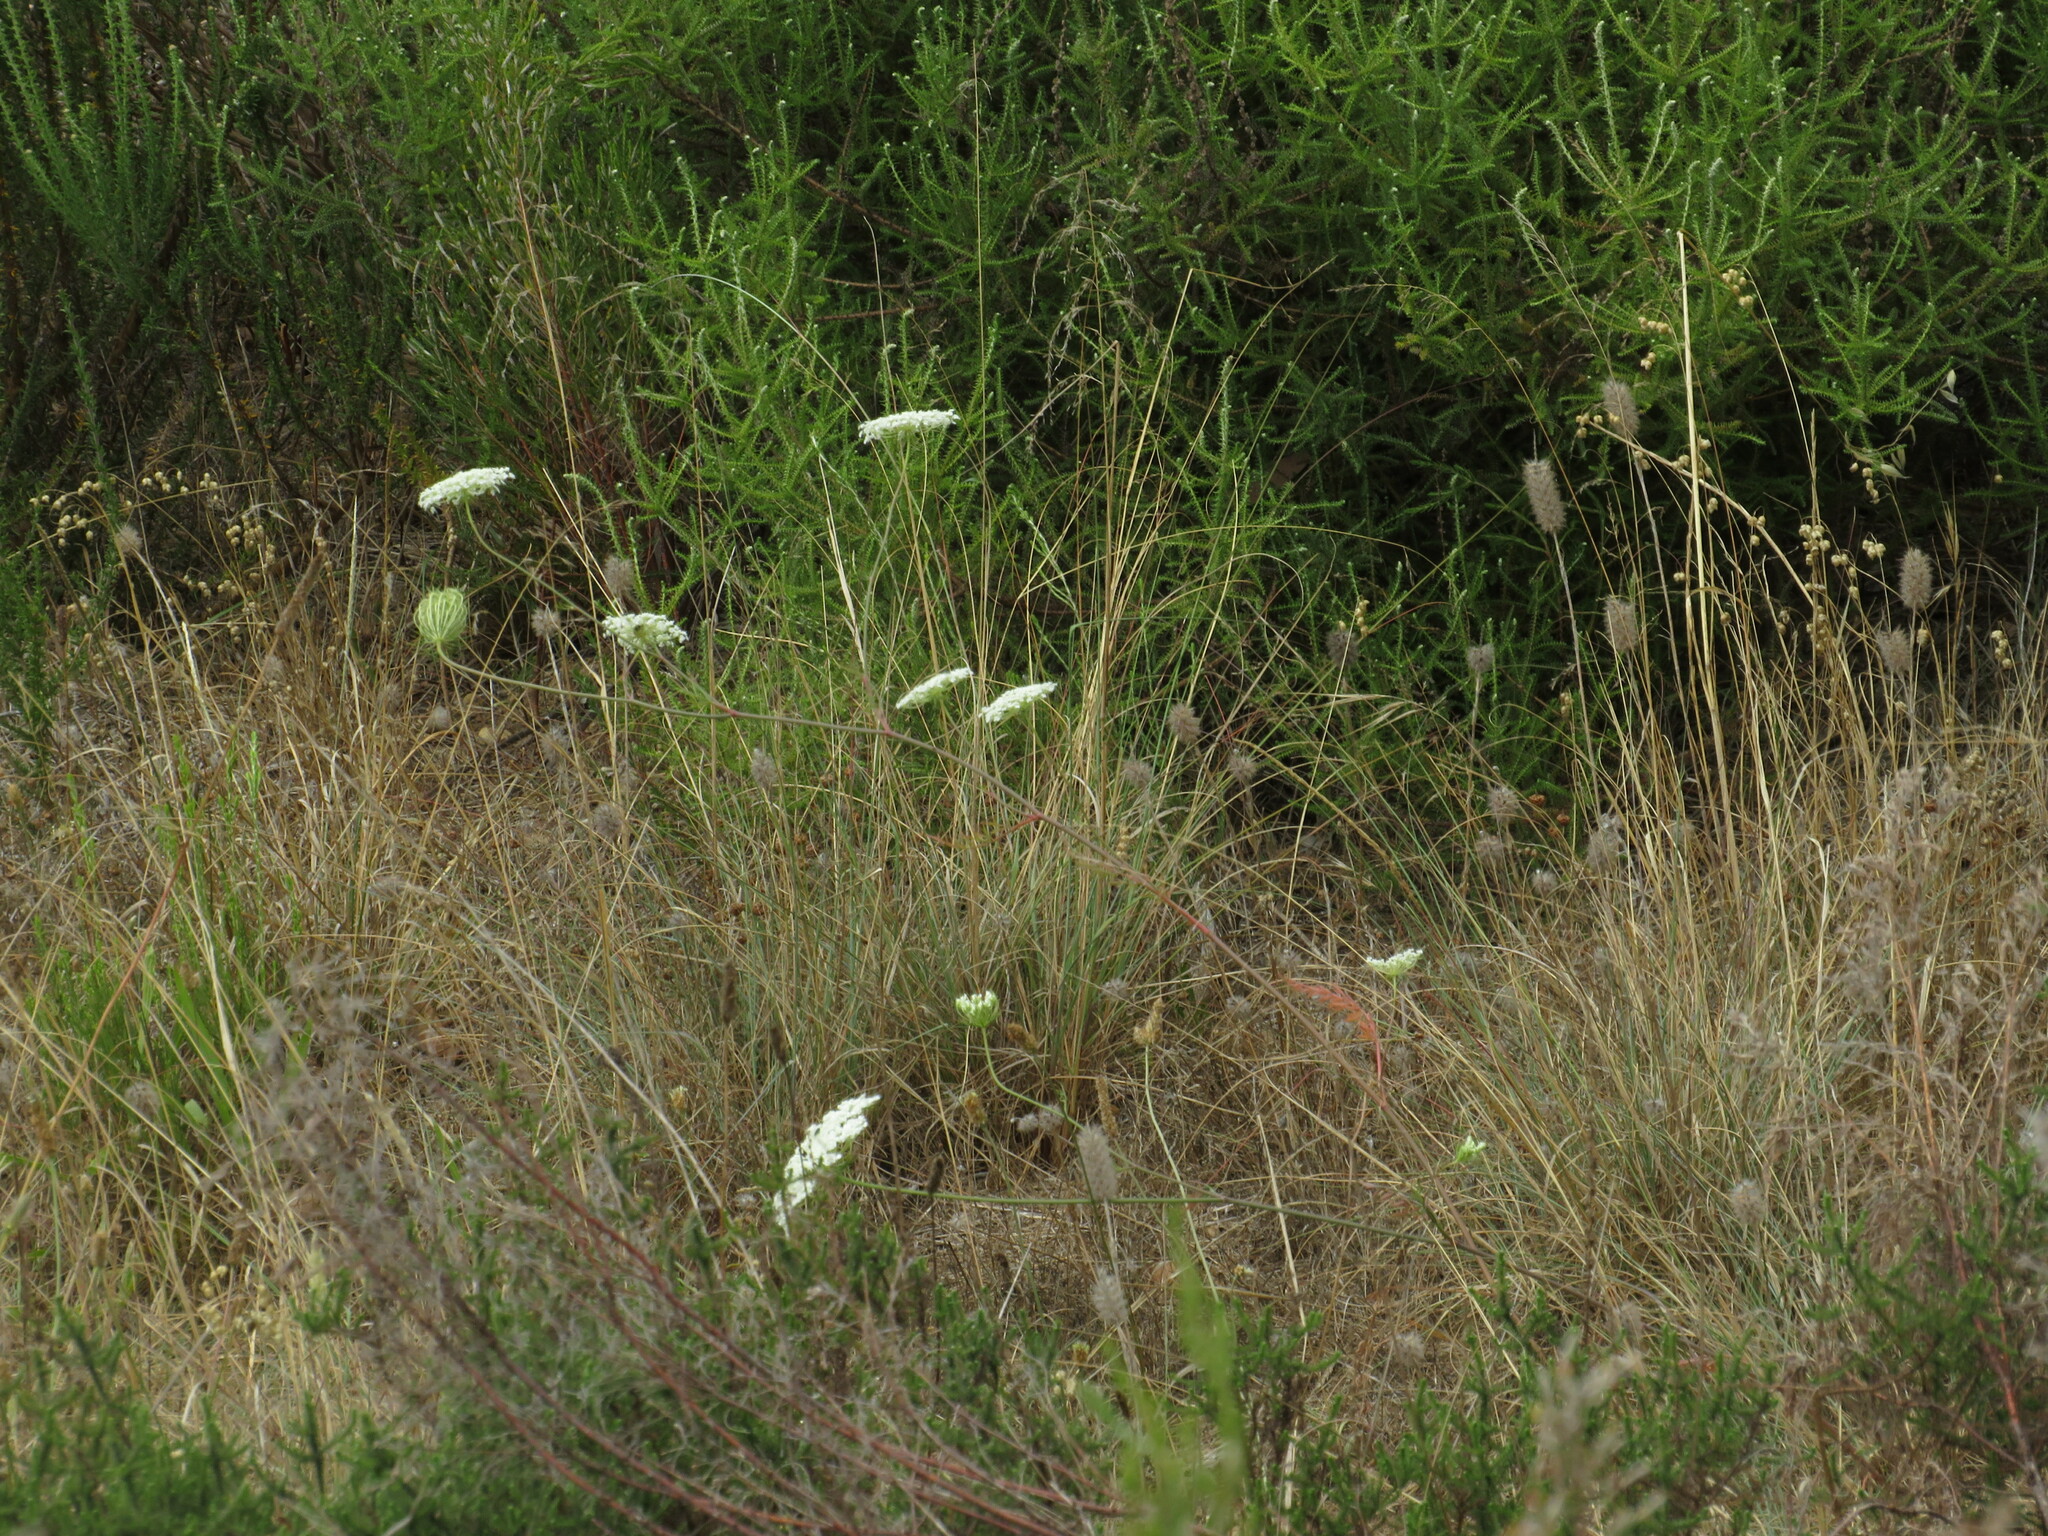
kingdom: Plantae
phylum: Tracheophyta
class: Magnoliopsida
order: Apiales
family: Apiaceae
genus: Daucus
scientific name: Daucus carota
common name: Wild carrot
